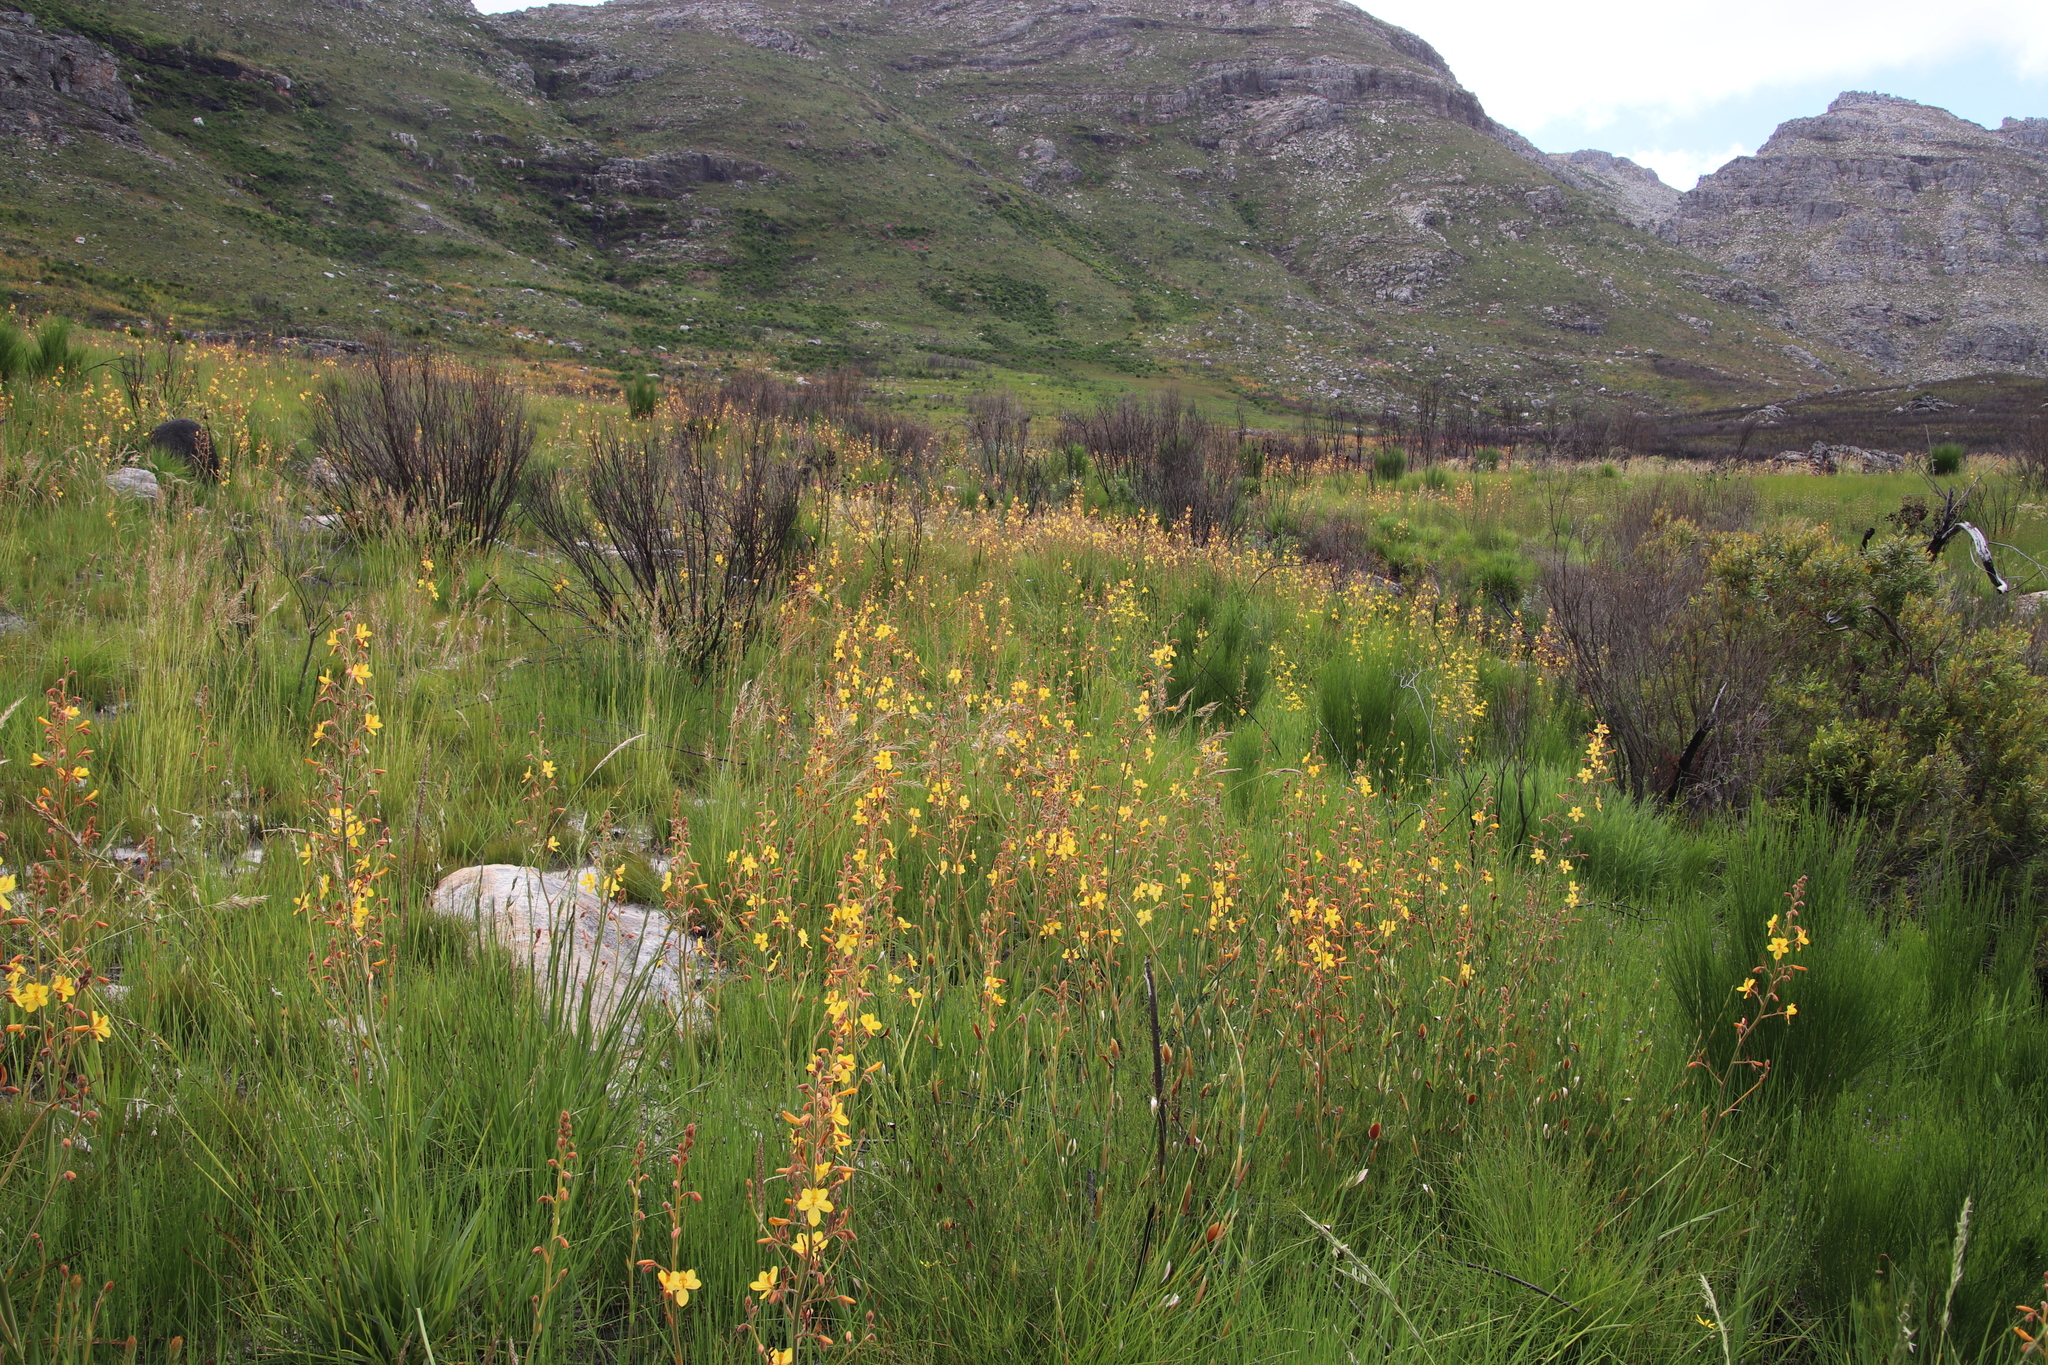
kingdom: Plantae
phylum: Tracheophyta
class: Liliopsida
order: Commelinales
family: Haemodoraceae
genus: Wachendorfia
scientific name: Wachendorfia paniculata
